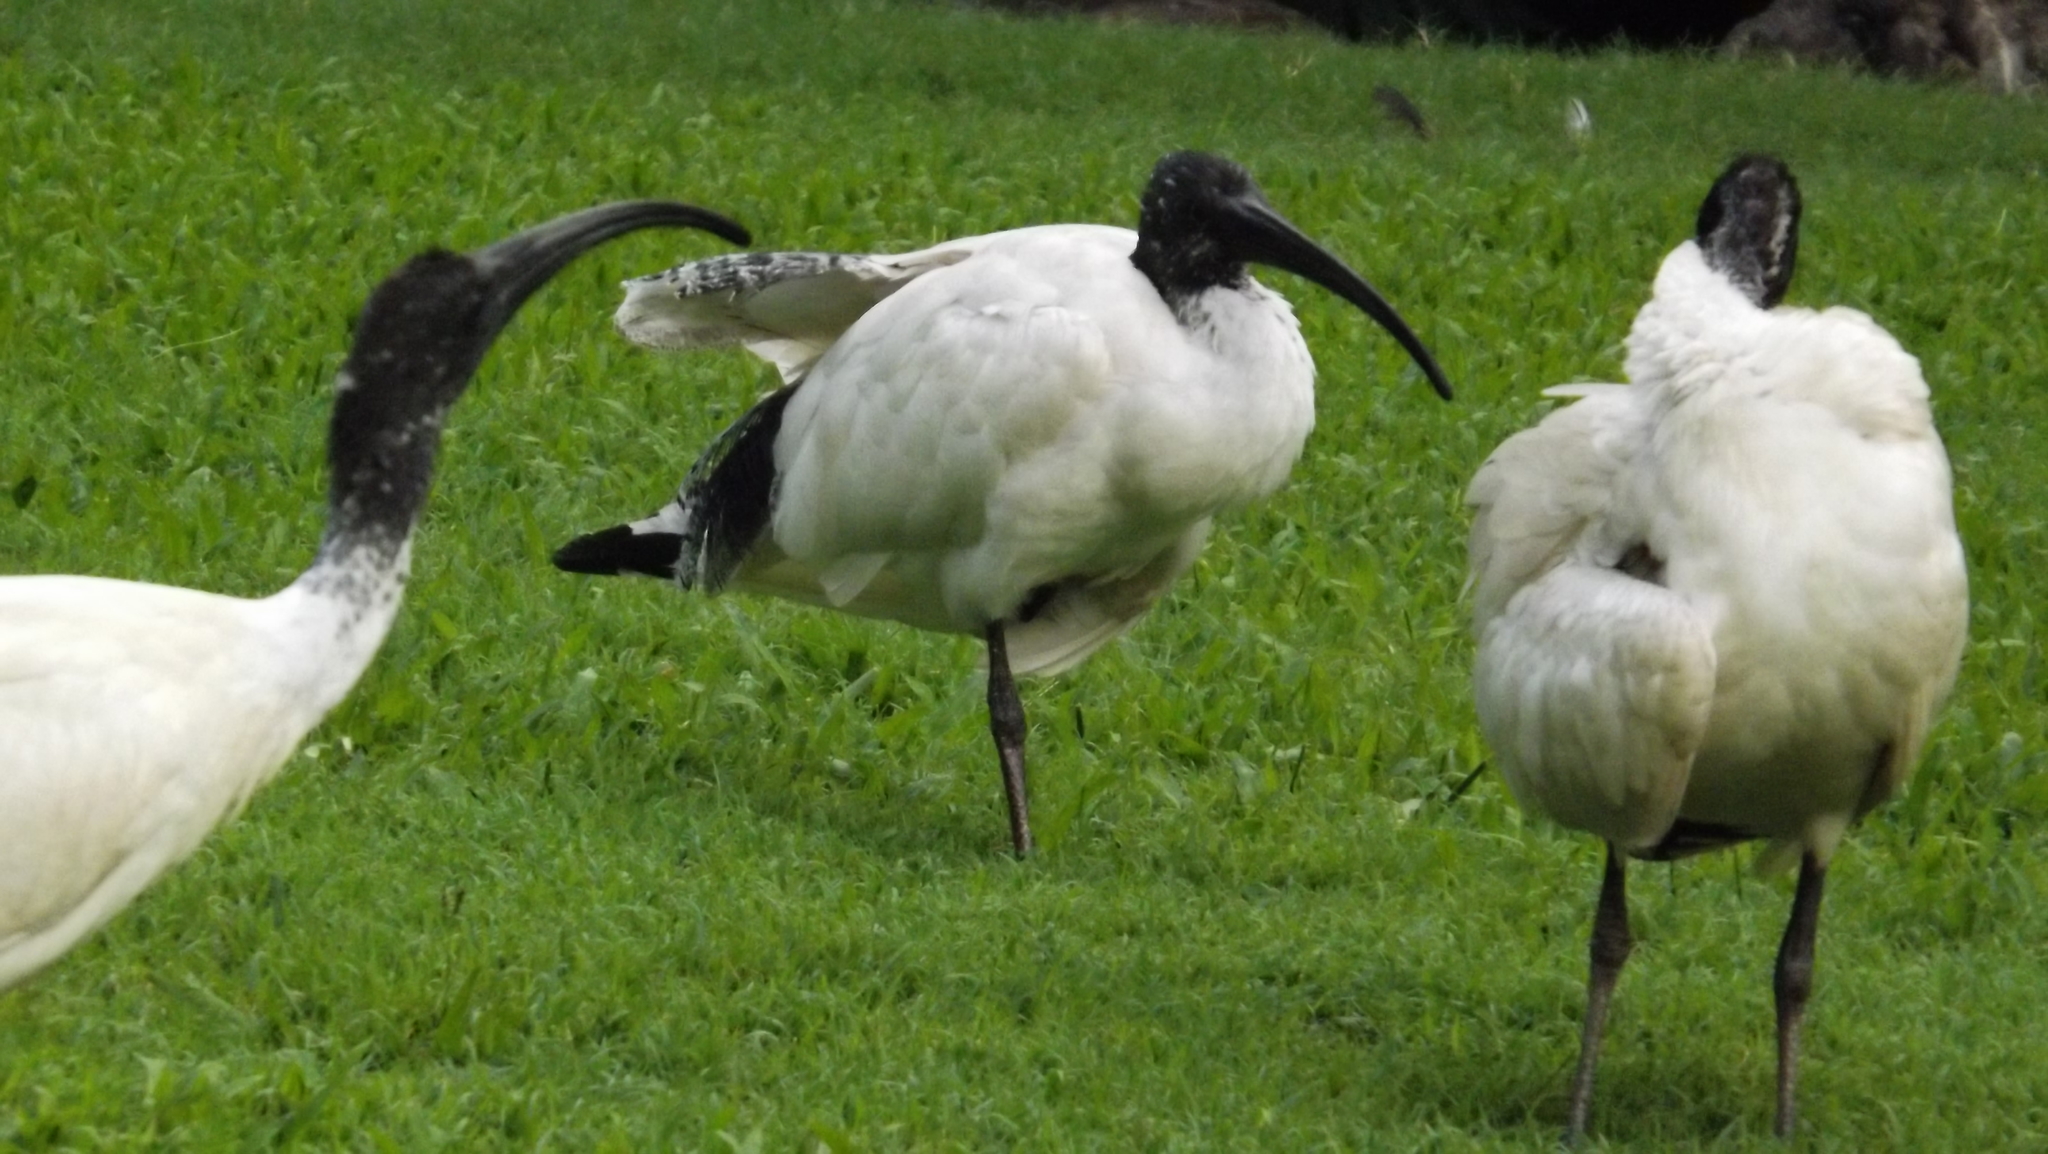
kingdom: Animalia
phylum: Chordata
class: Aves
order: Pelecaniformes
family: Threskiornithidae
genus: Threskiornis
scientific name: Threskiornis molucca
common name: Australian white ibis
